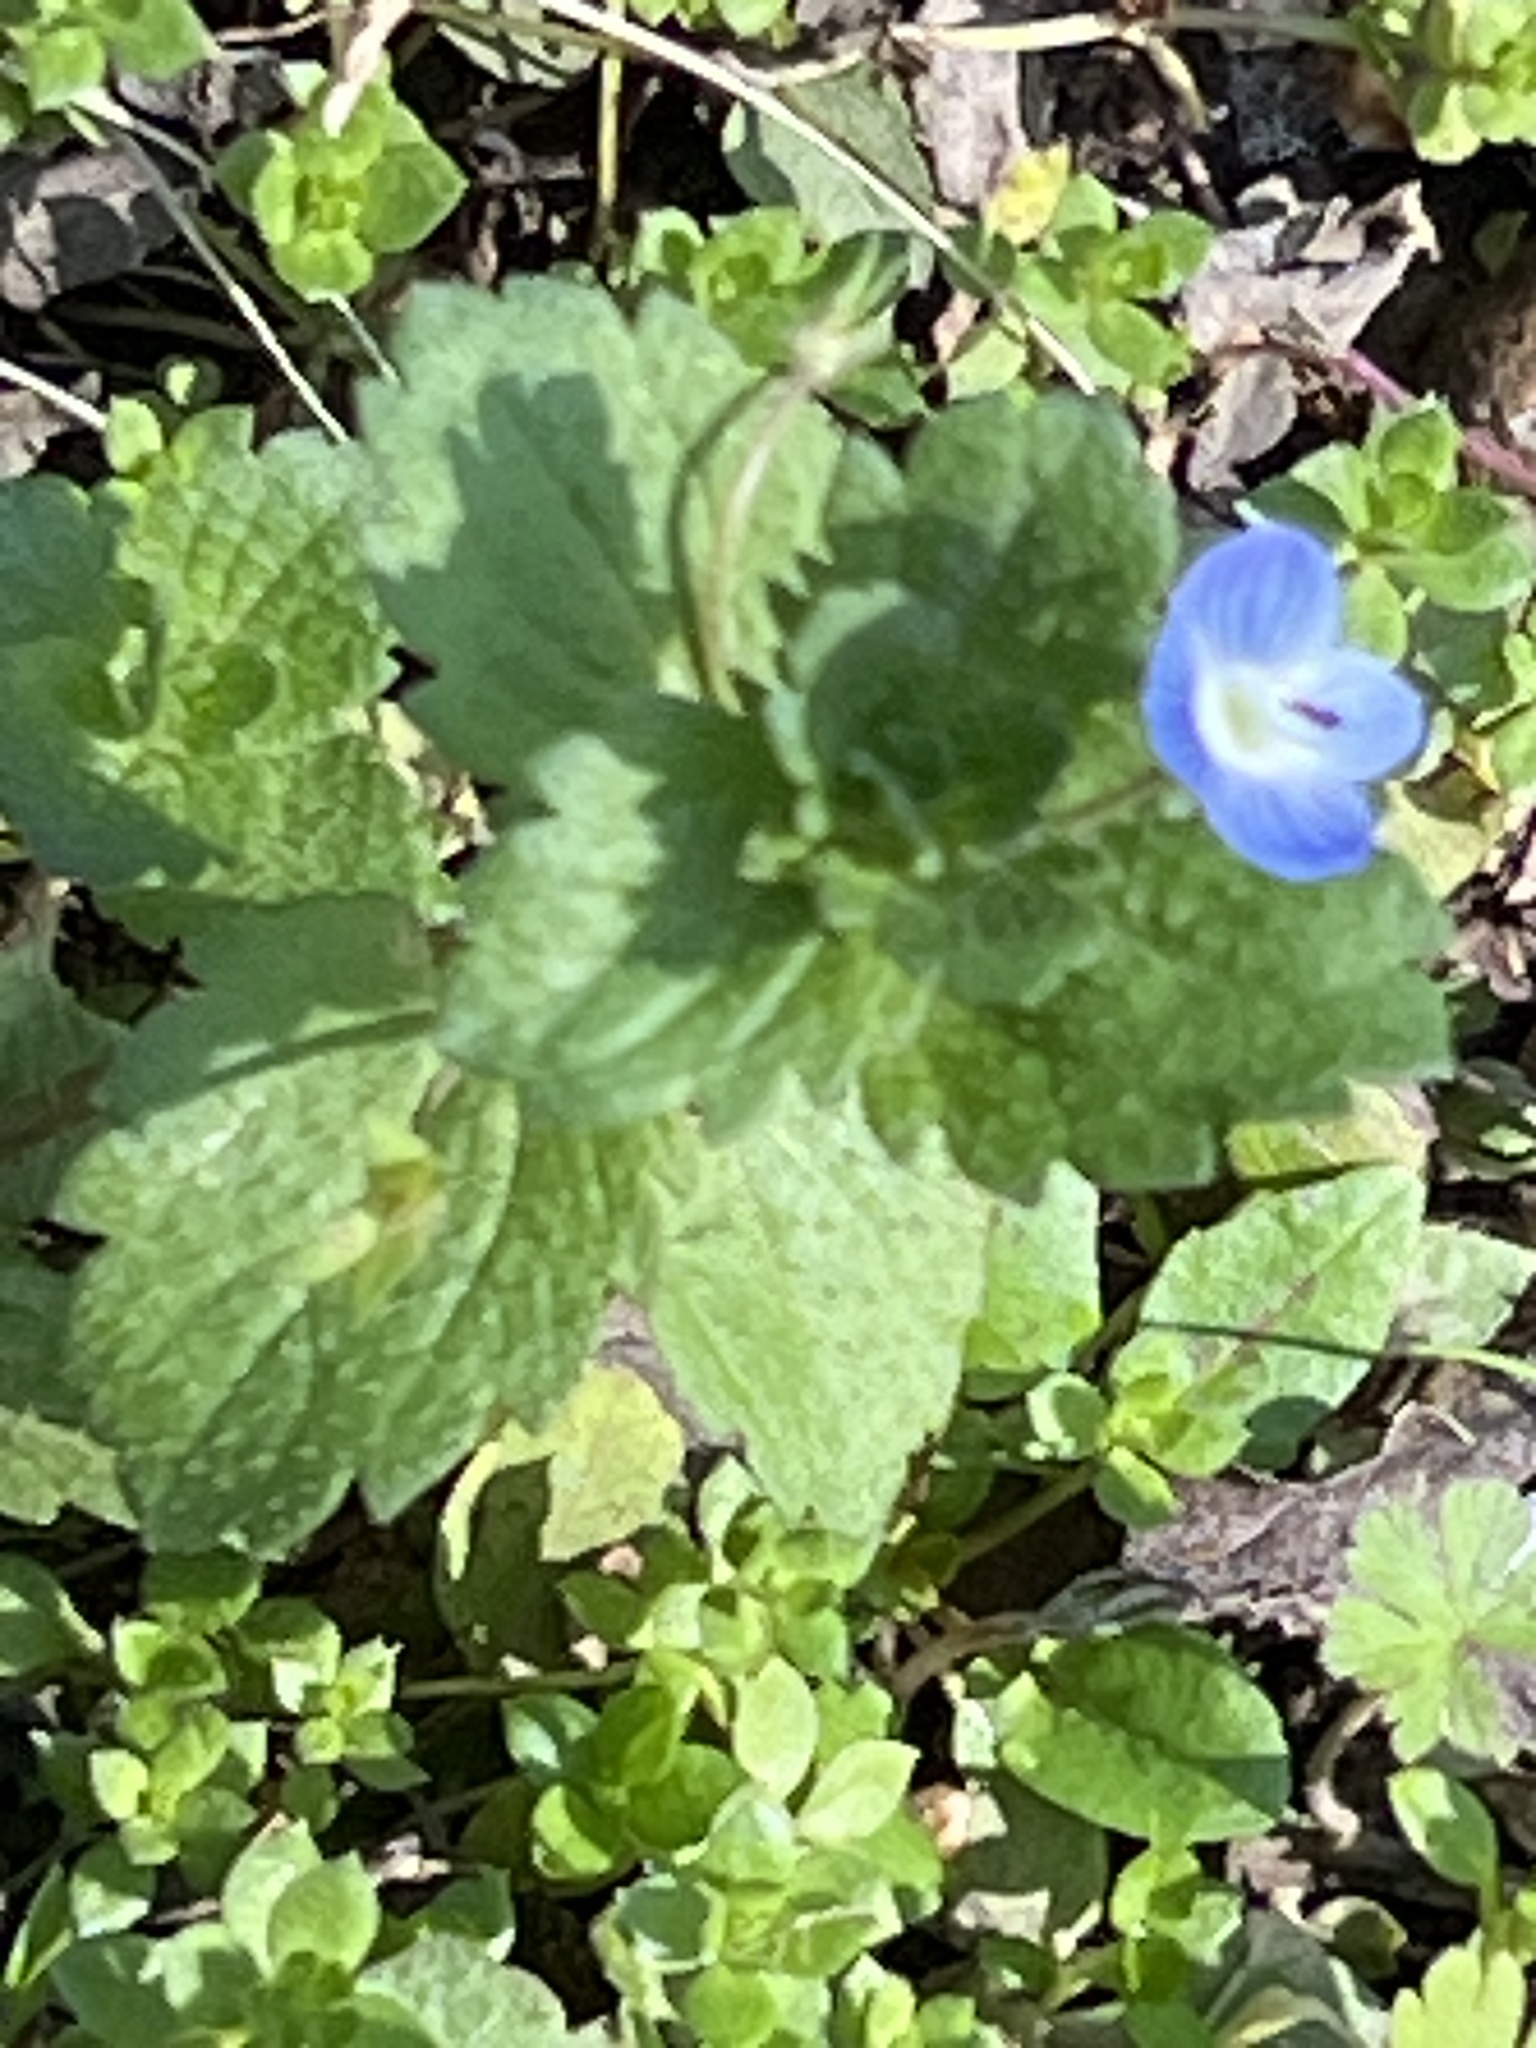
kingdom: Plantae
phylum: Tracheophyta
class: Magnoliopsida
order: Lamiales
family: Plantaginaceae
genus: Veronica
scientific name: Veronica persica
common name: Common field-speedwell
